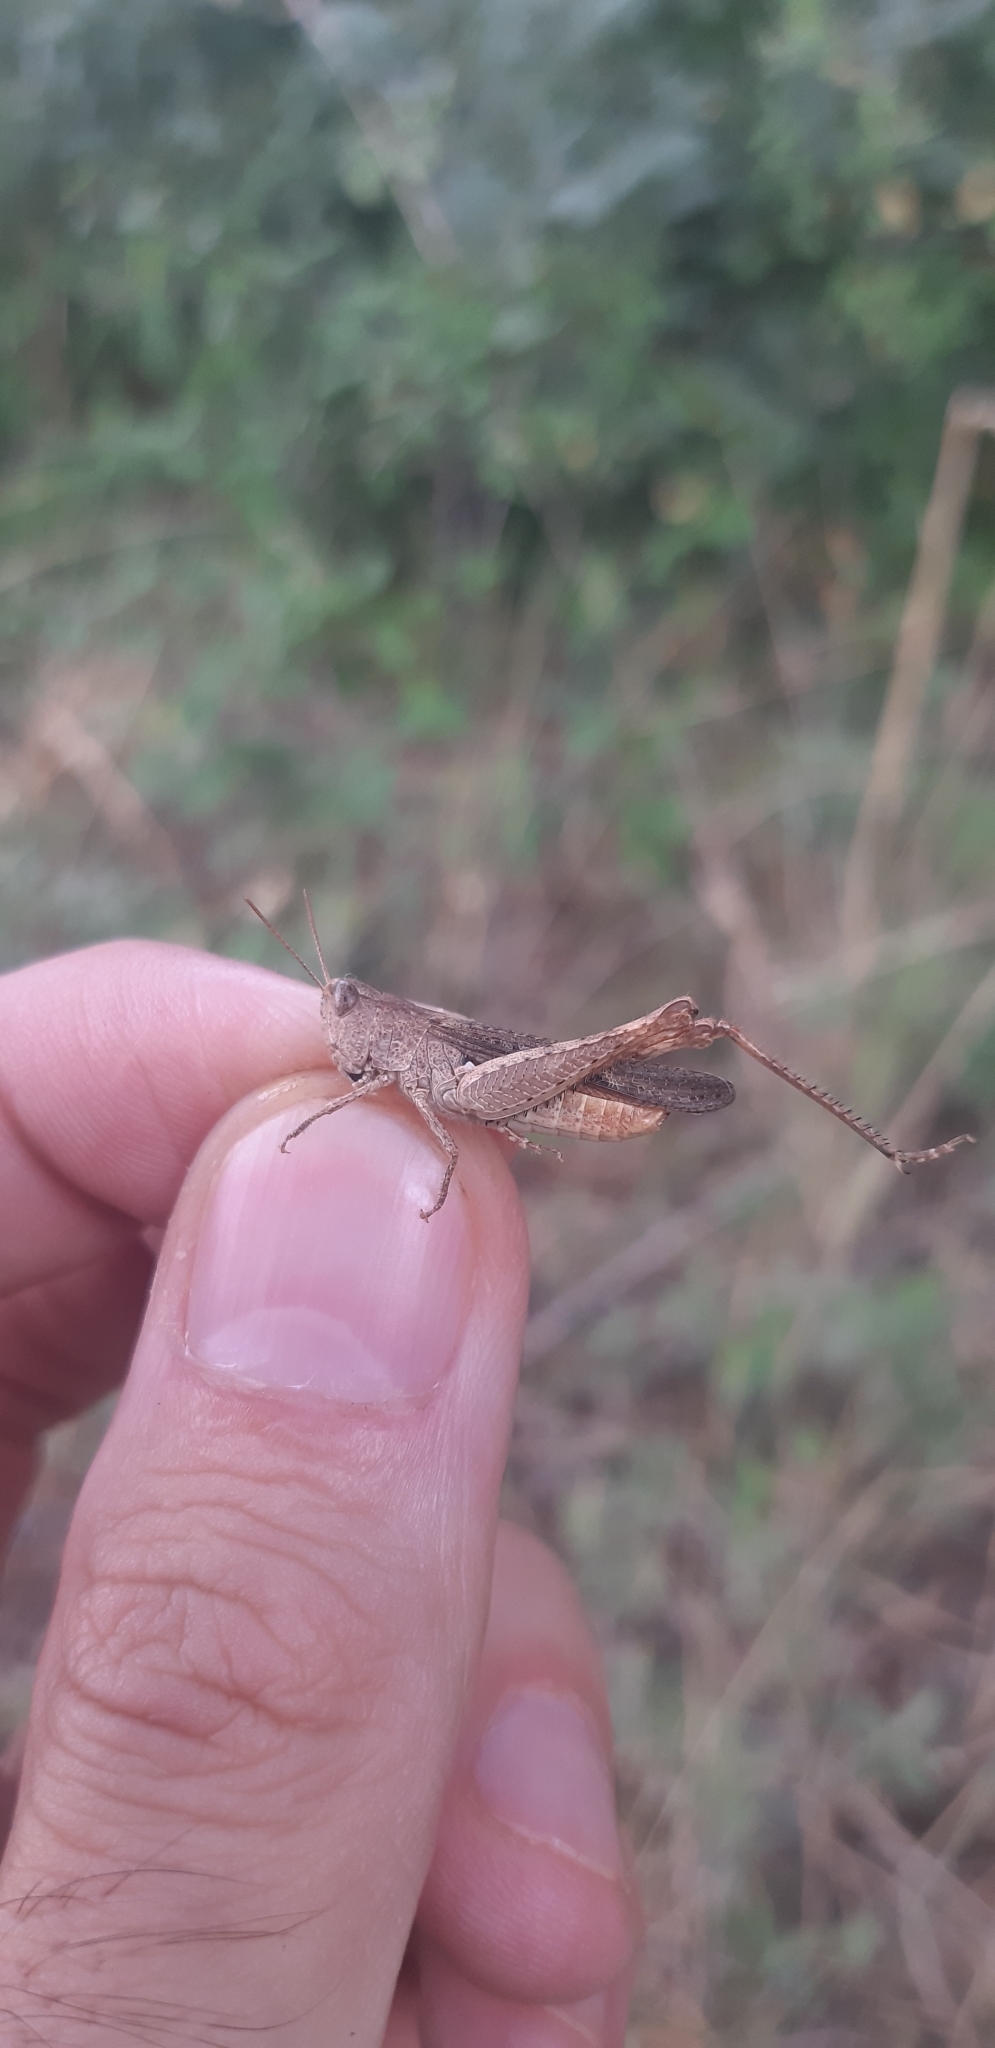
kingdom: Animalia
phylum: Arthropoda
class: Insecta
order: Orthoptera
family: Acrididae
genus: Chorthippus
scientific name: Chorthippus brunneus
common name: Field grasshopper
